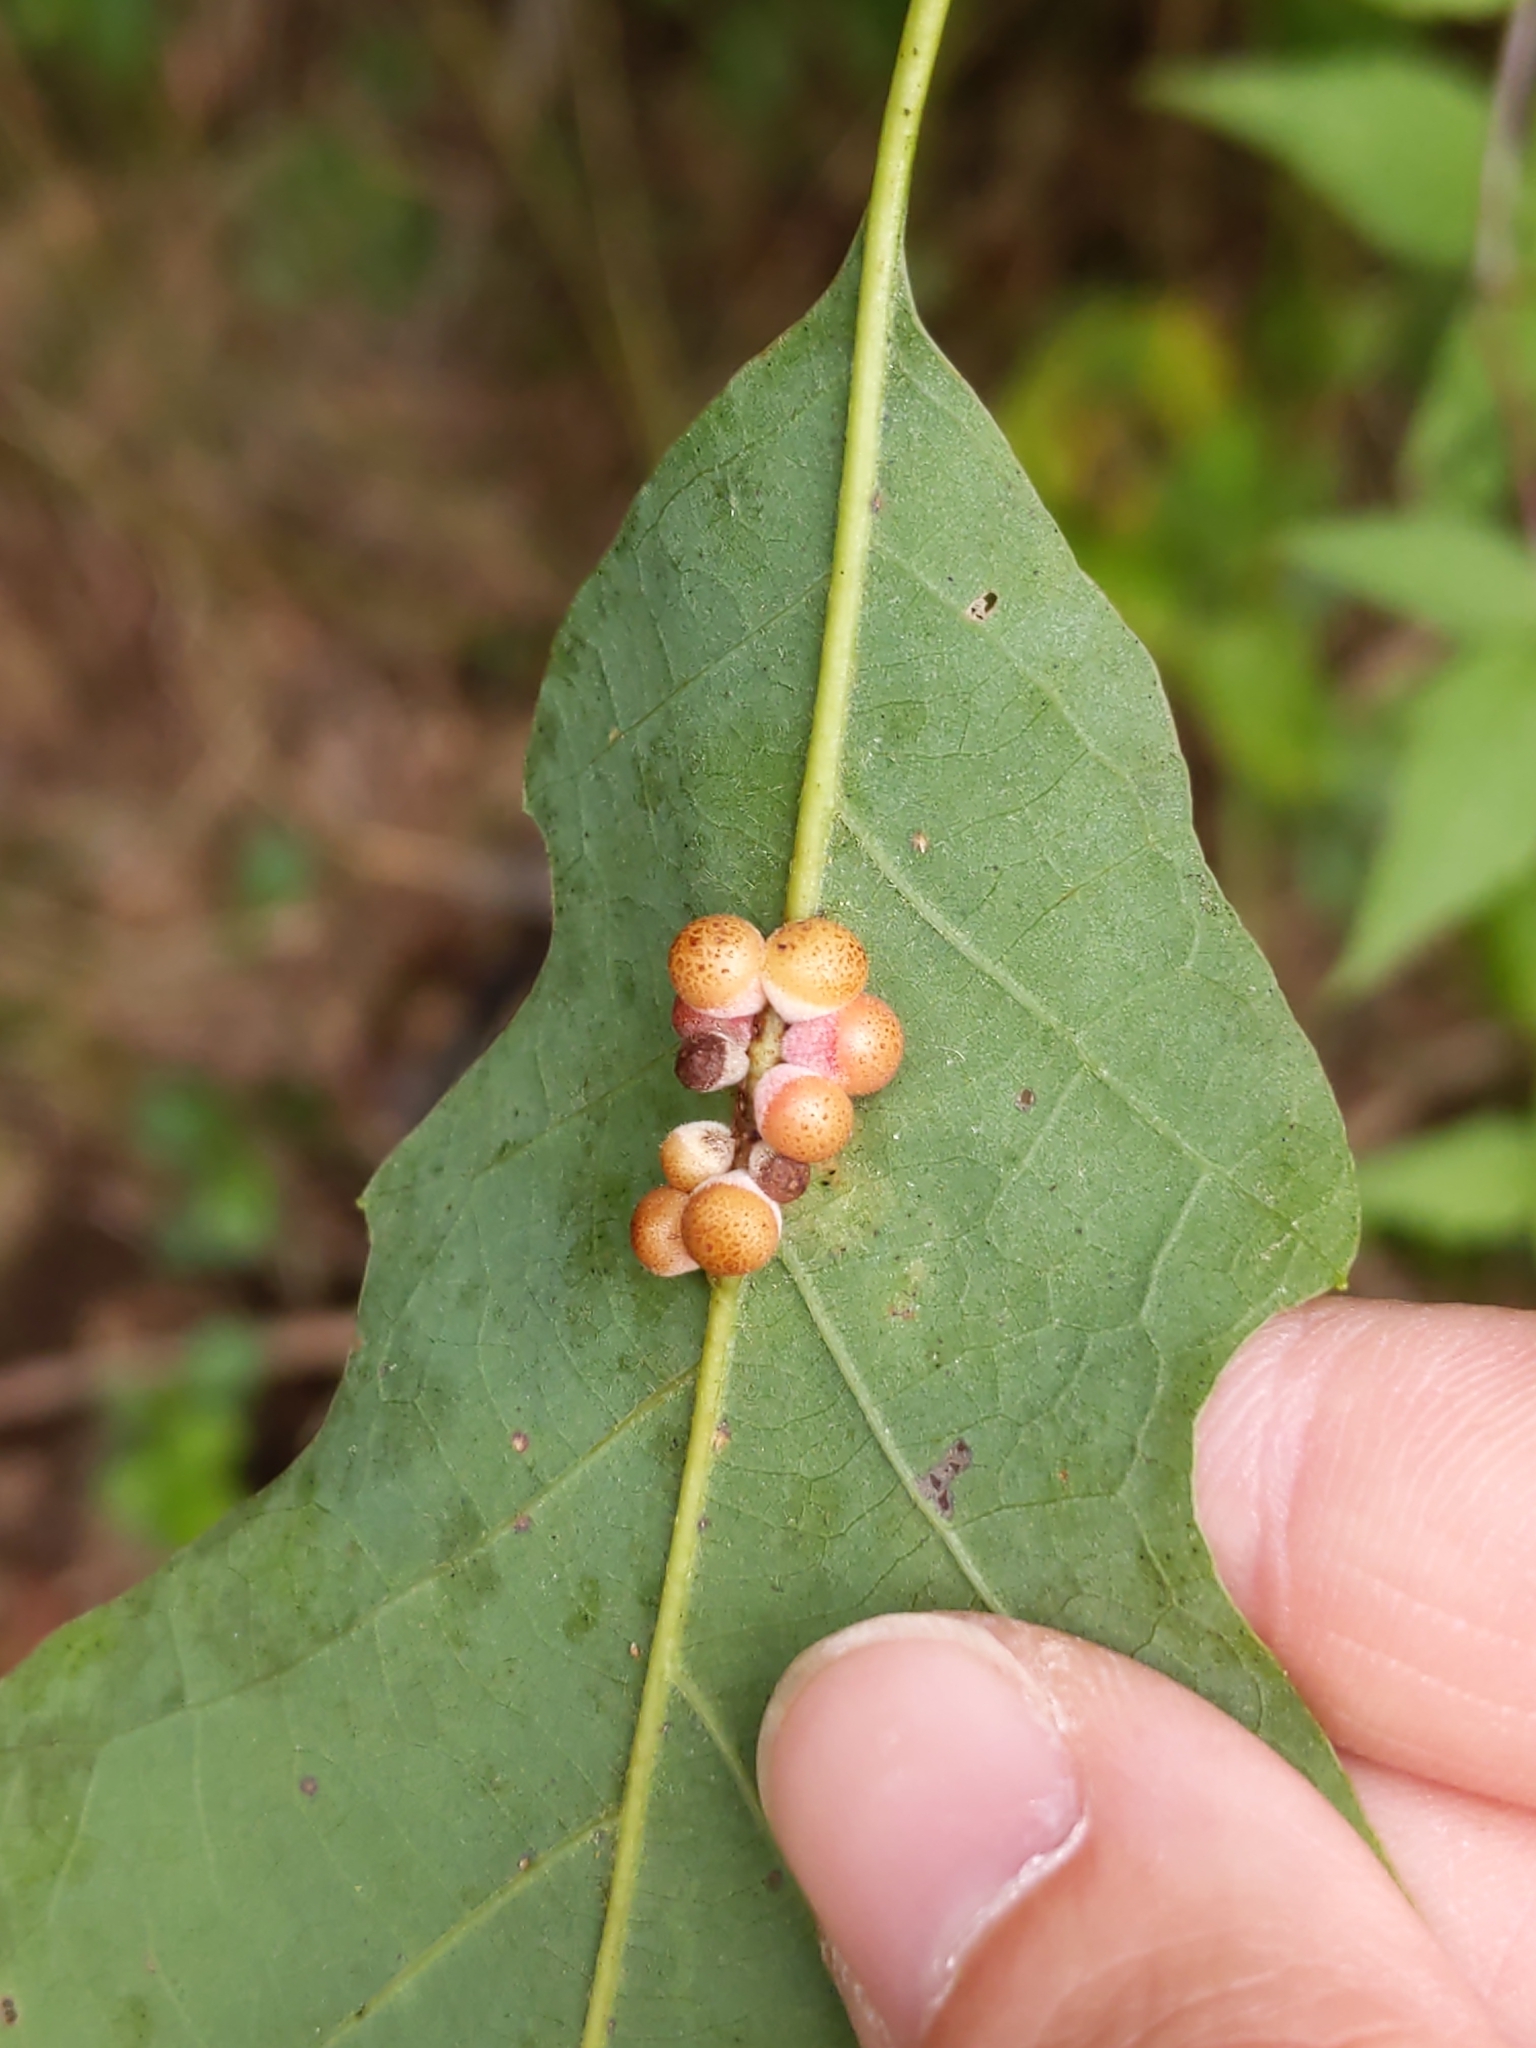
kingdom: Animalia
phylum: Arthropoda
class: Insecta
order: Hymenoptera
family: Cynipidae
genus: Andricus
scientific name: Andricus
